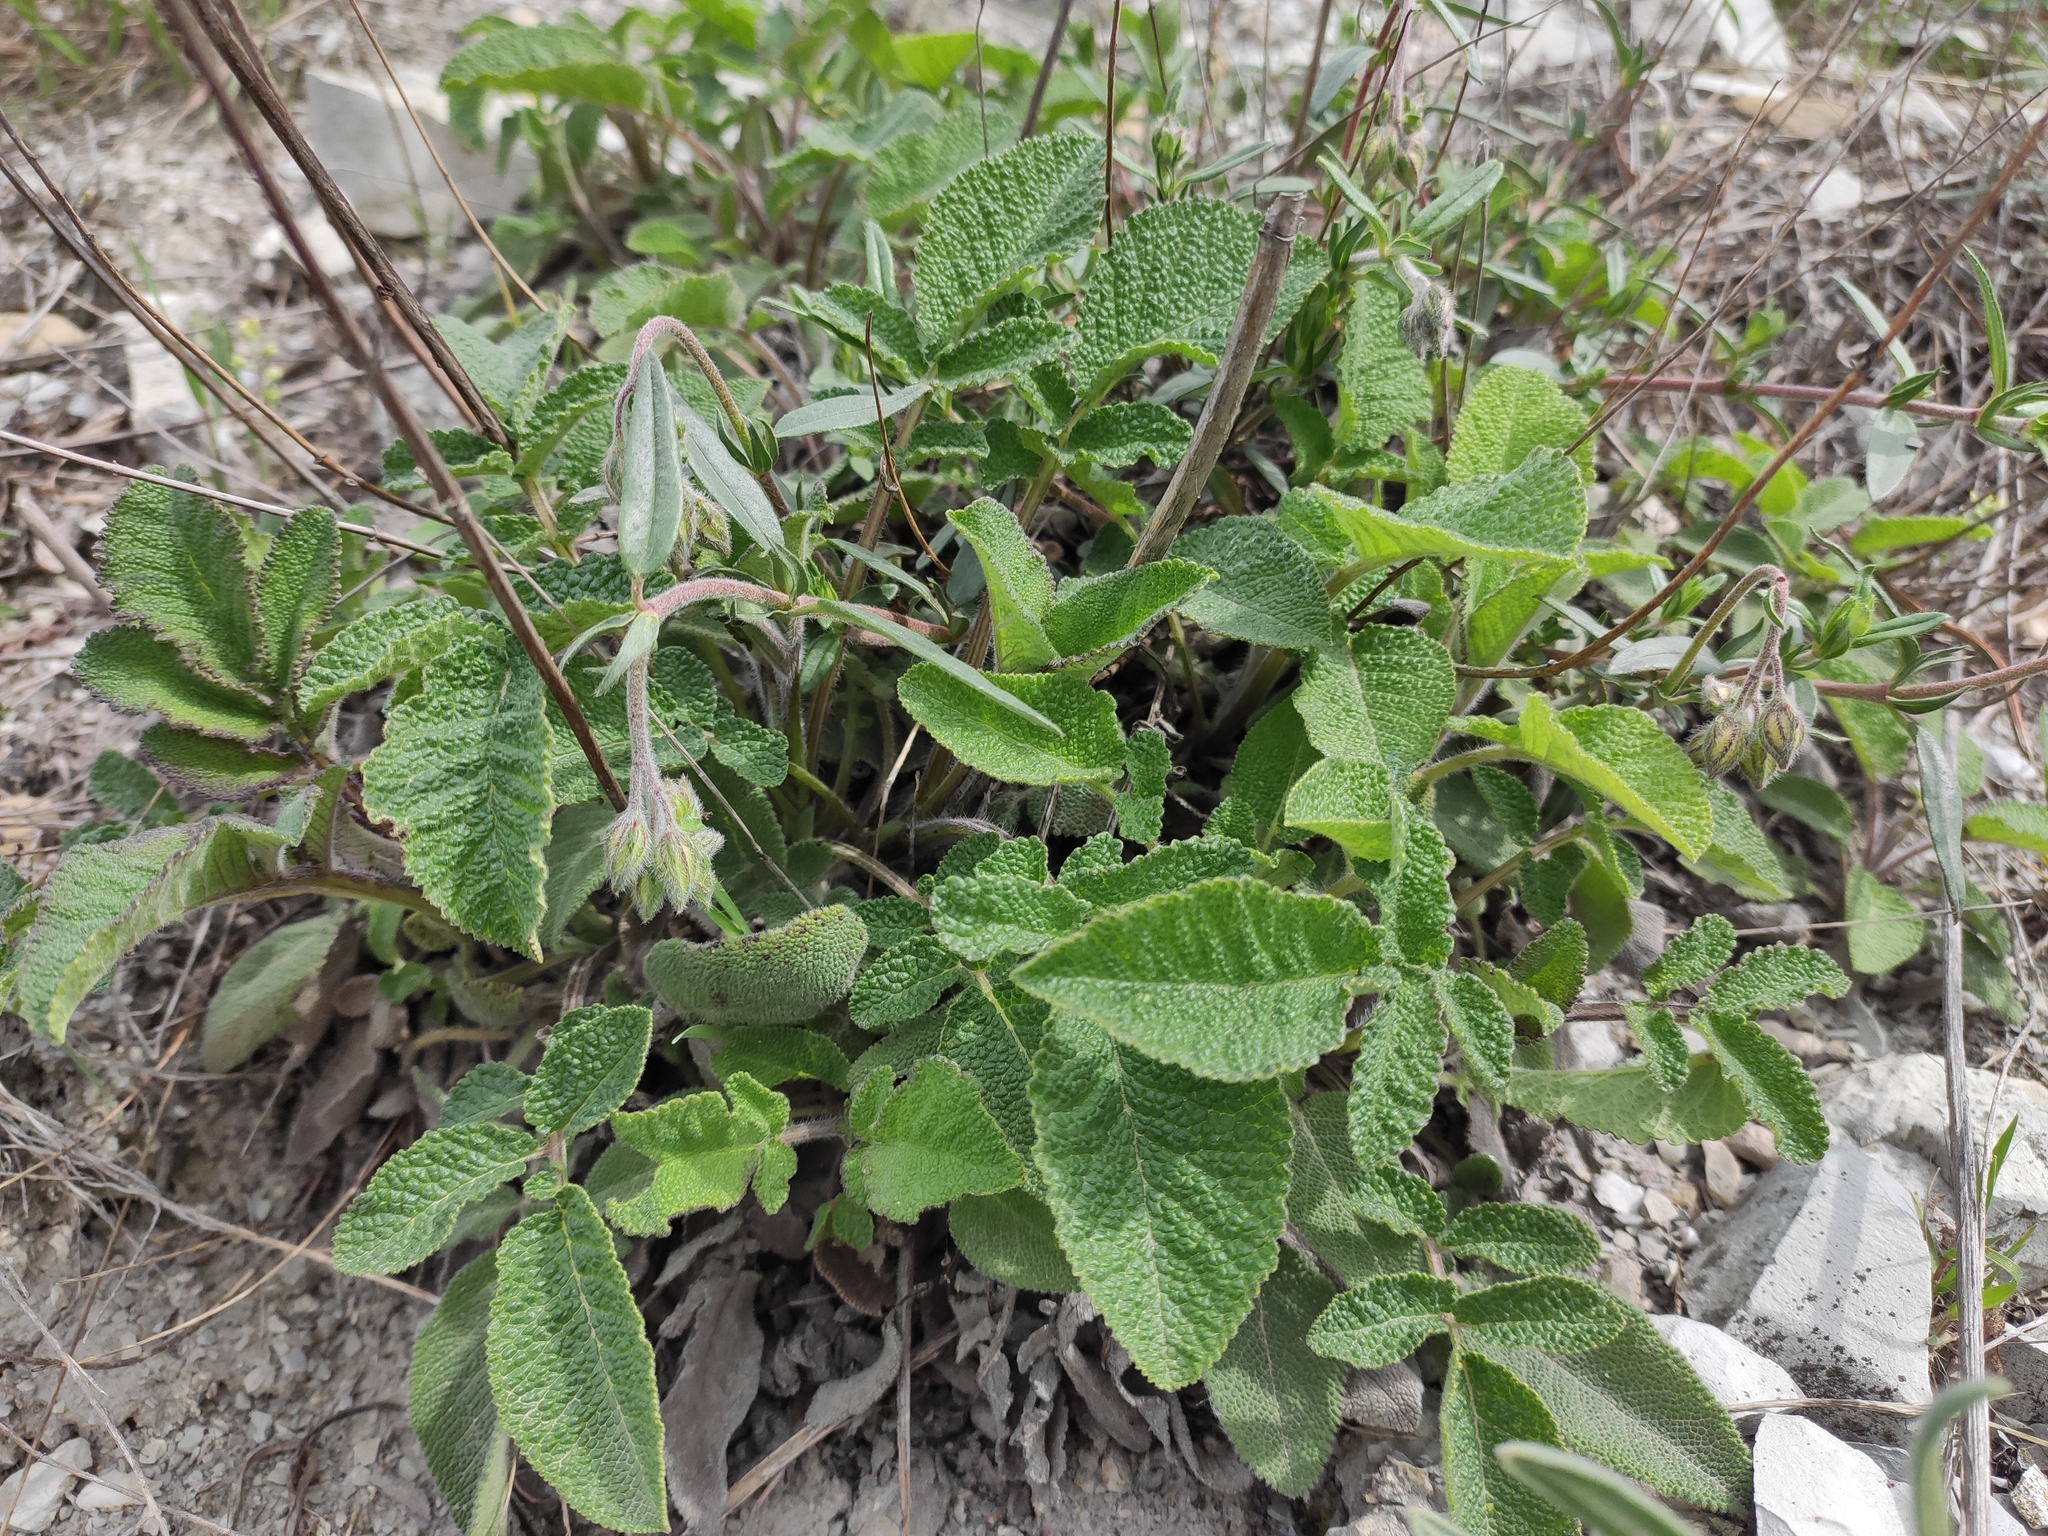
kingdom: Plantae
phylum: Tracheophyta
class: Magnoliopsida
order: Lamiales
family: Lamiaceae
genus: Salvia
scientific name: Salvia ringens
